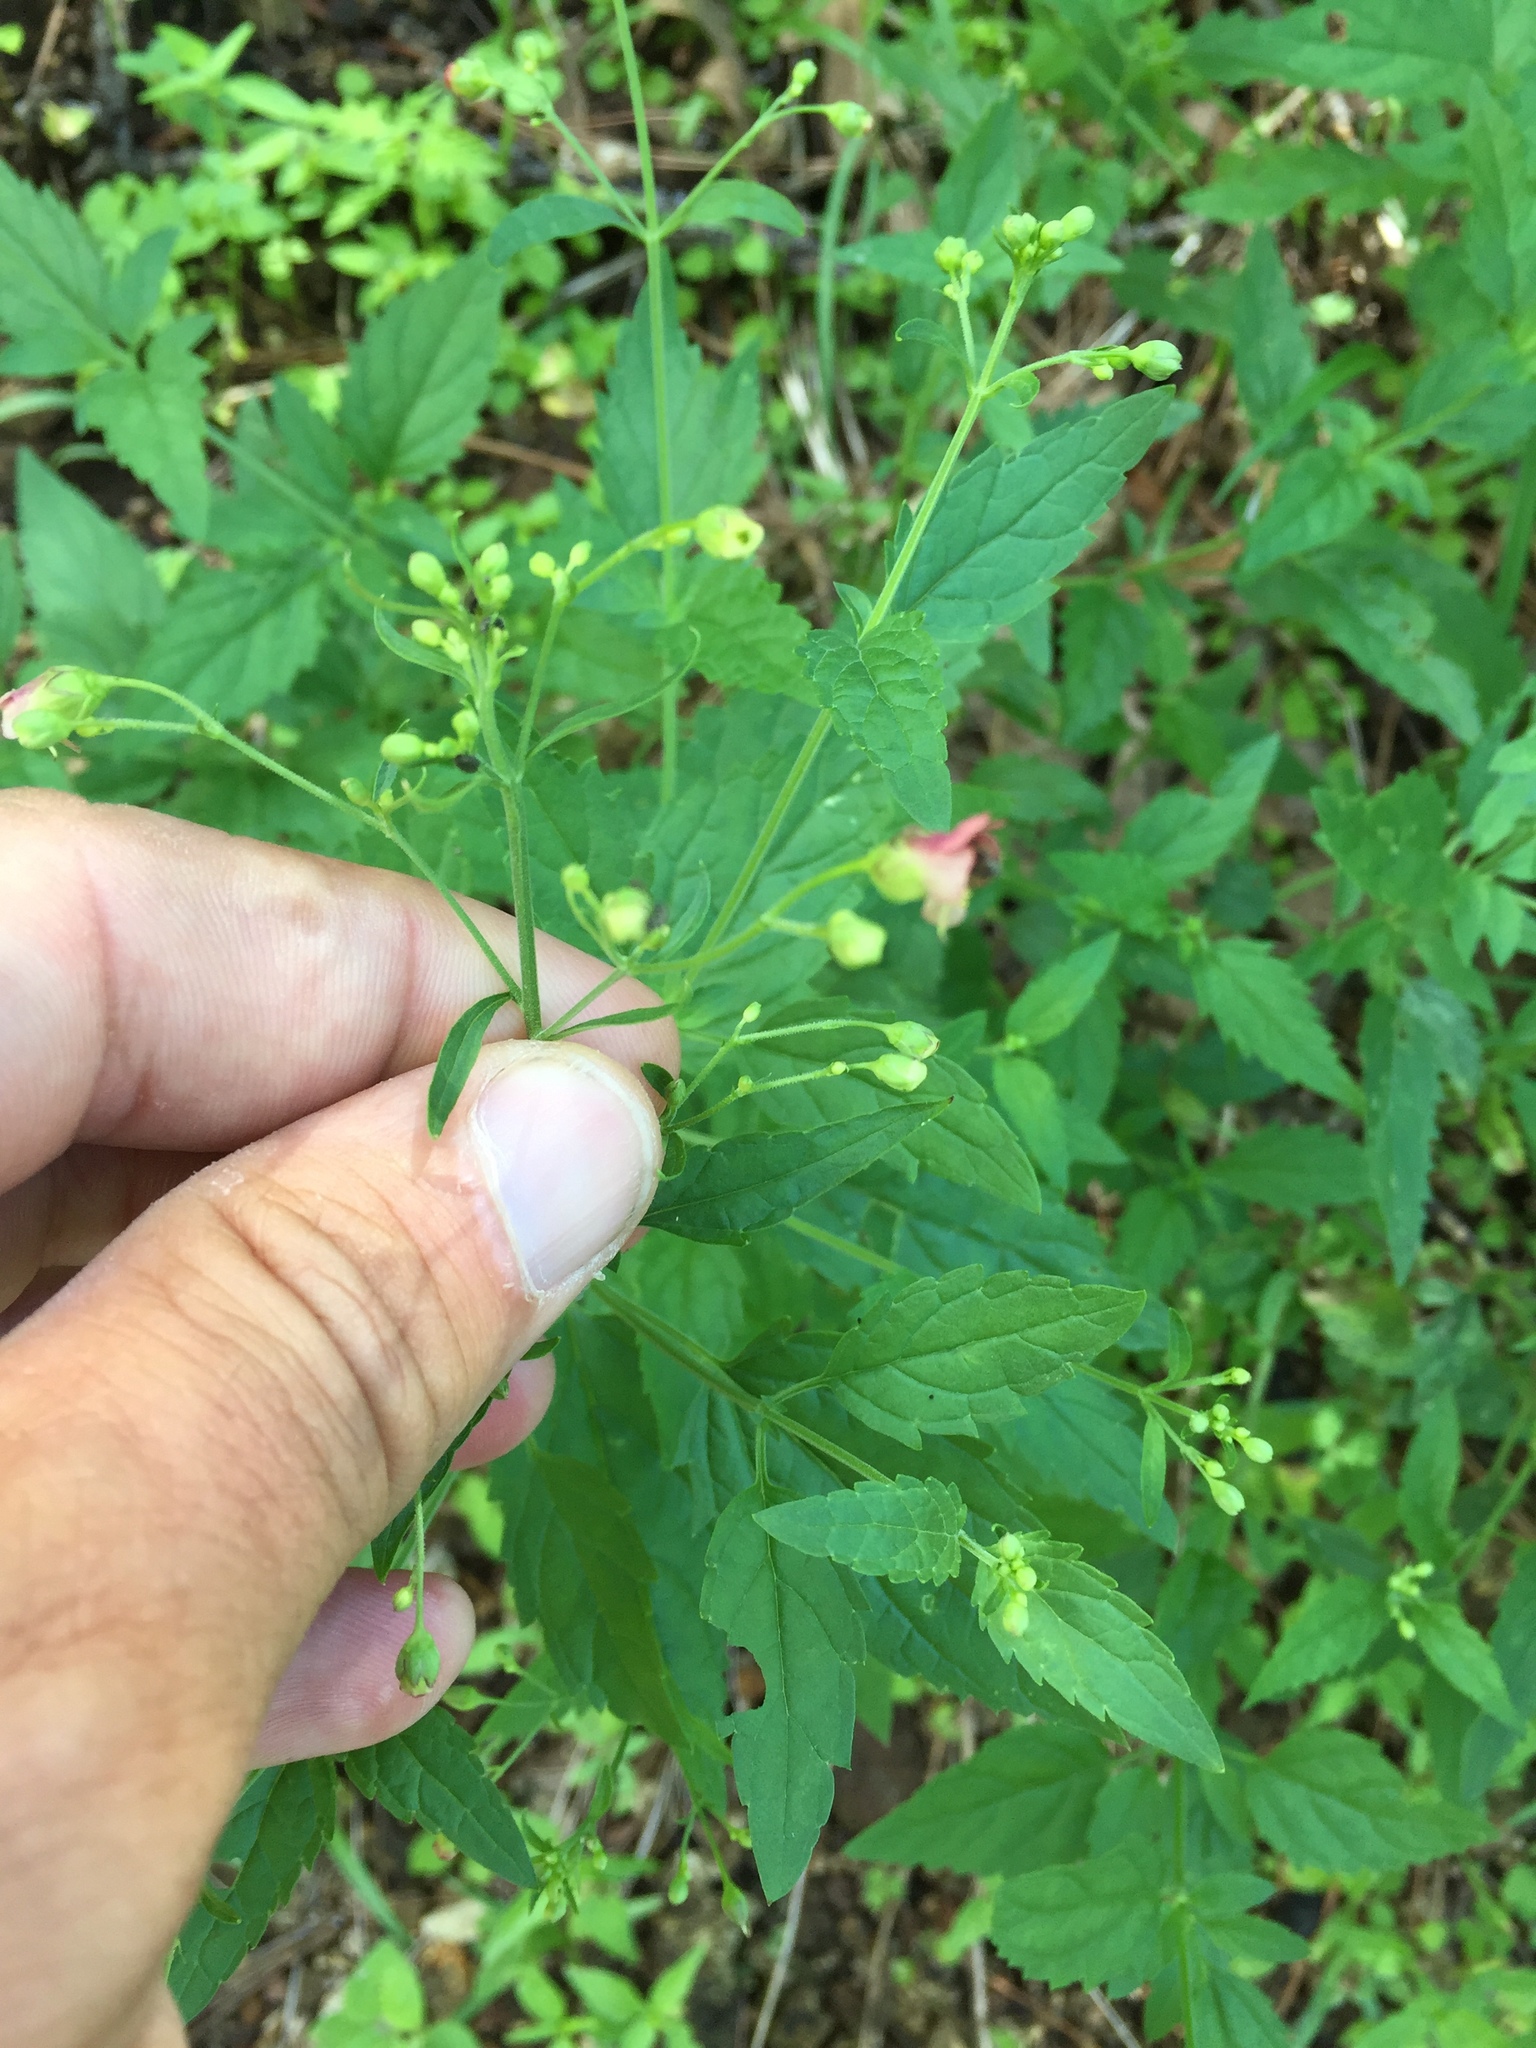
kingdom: Plantae
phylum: Tracheophyta
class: Magnoliopsida
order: Lamiales
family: Scrophulariaceae
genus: Scrophularia
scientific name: Scrophularia parviflora
